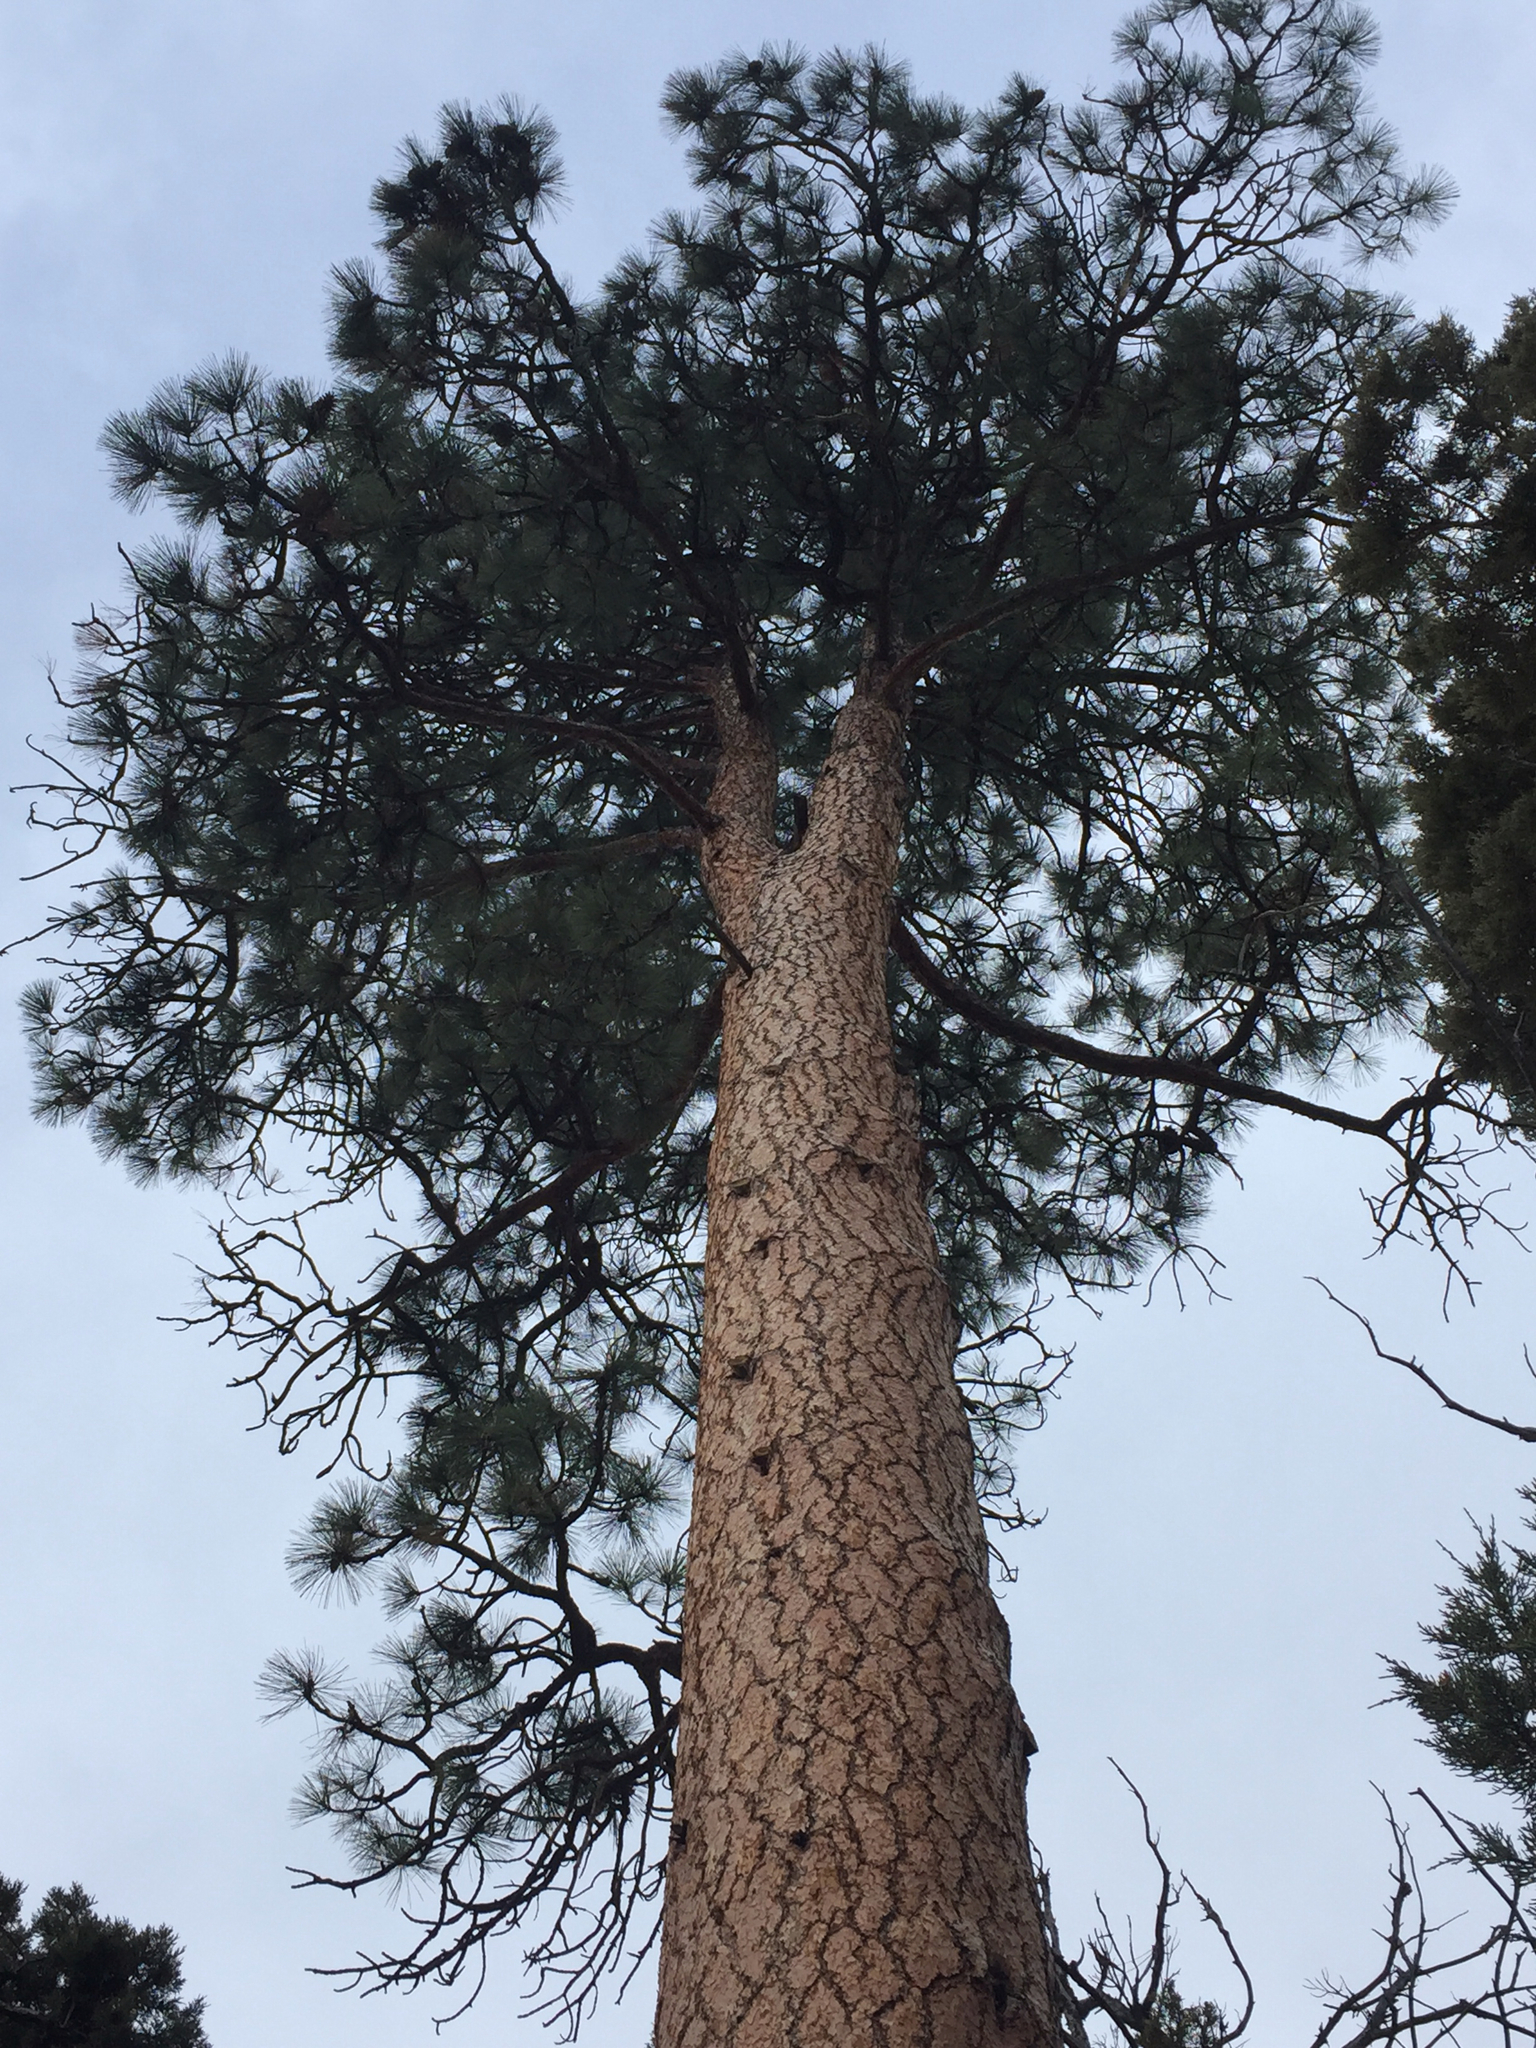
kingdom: Plantae
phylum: Tracheophyta
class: Pinopsida
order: Pinales
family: Pinaceae
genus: Pinus
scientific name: Pinus ponderosa
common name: Western yellow-pine
